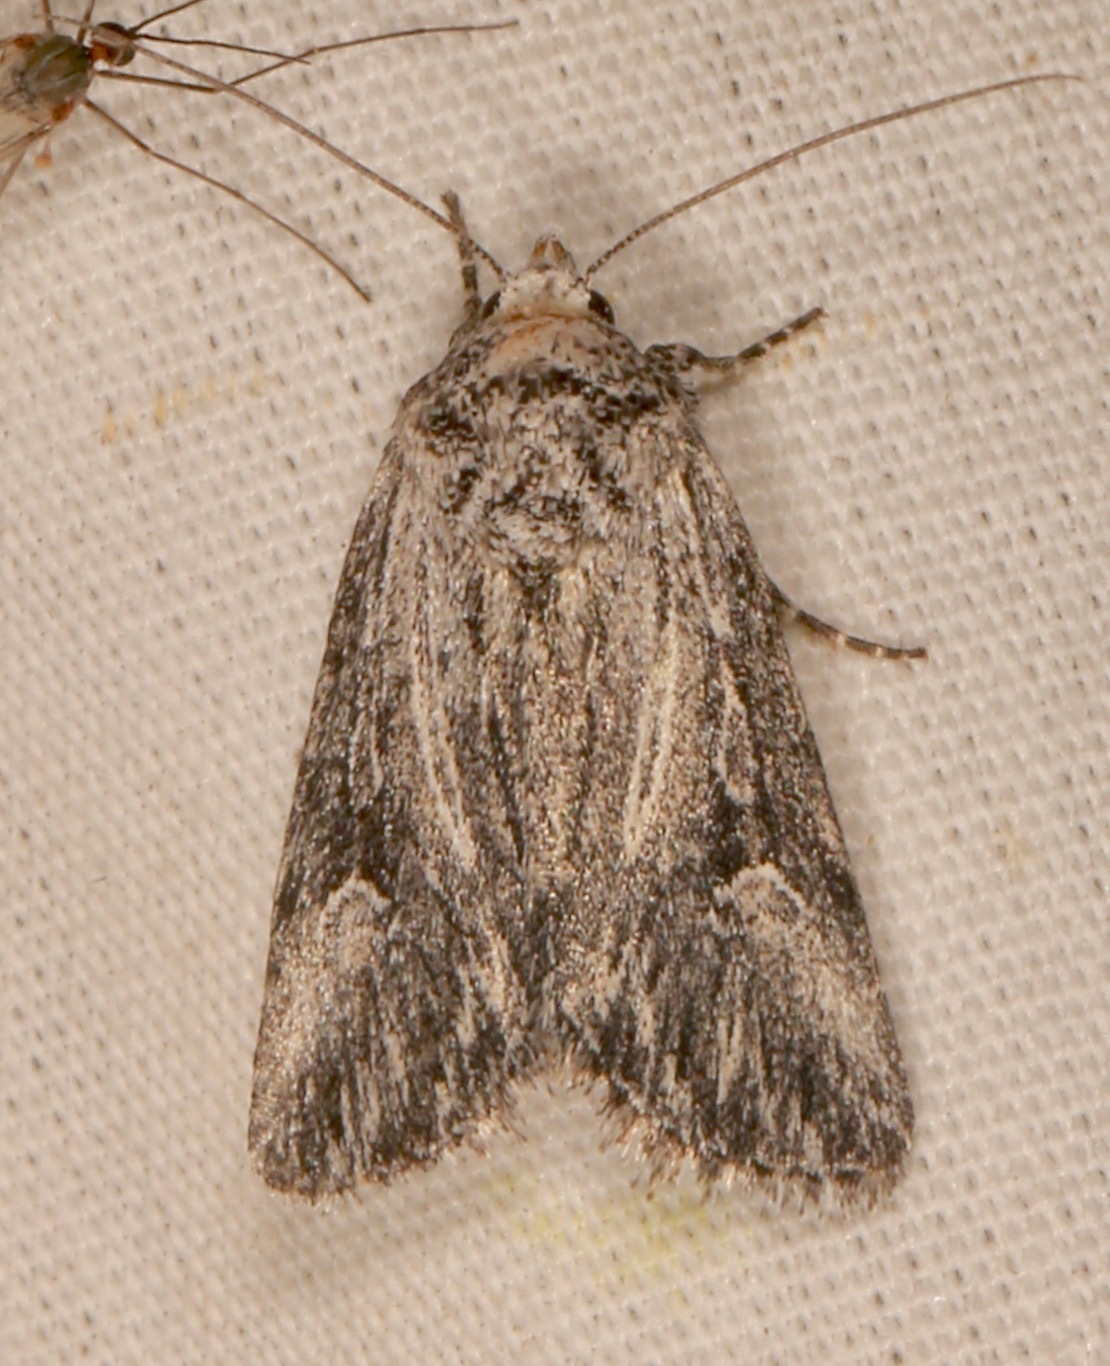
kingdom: Animalia
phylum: Arthropoda
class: Insecta
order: Lepidoptera
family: Noctuidae
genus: Sympistis
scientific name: Sympistis ciliata
